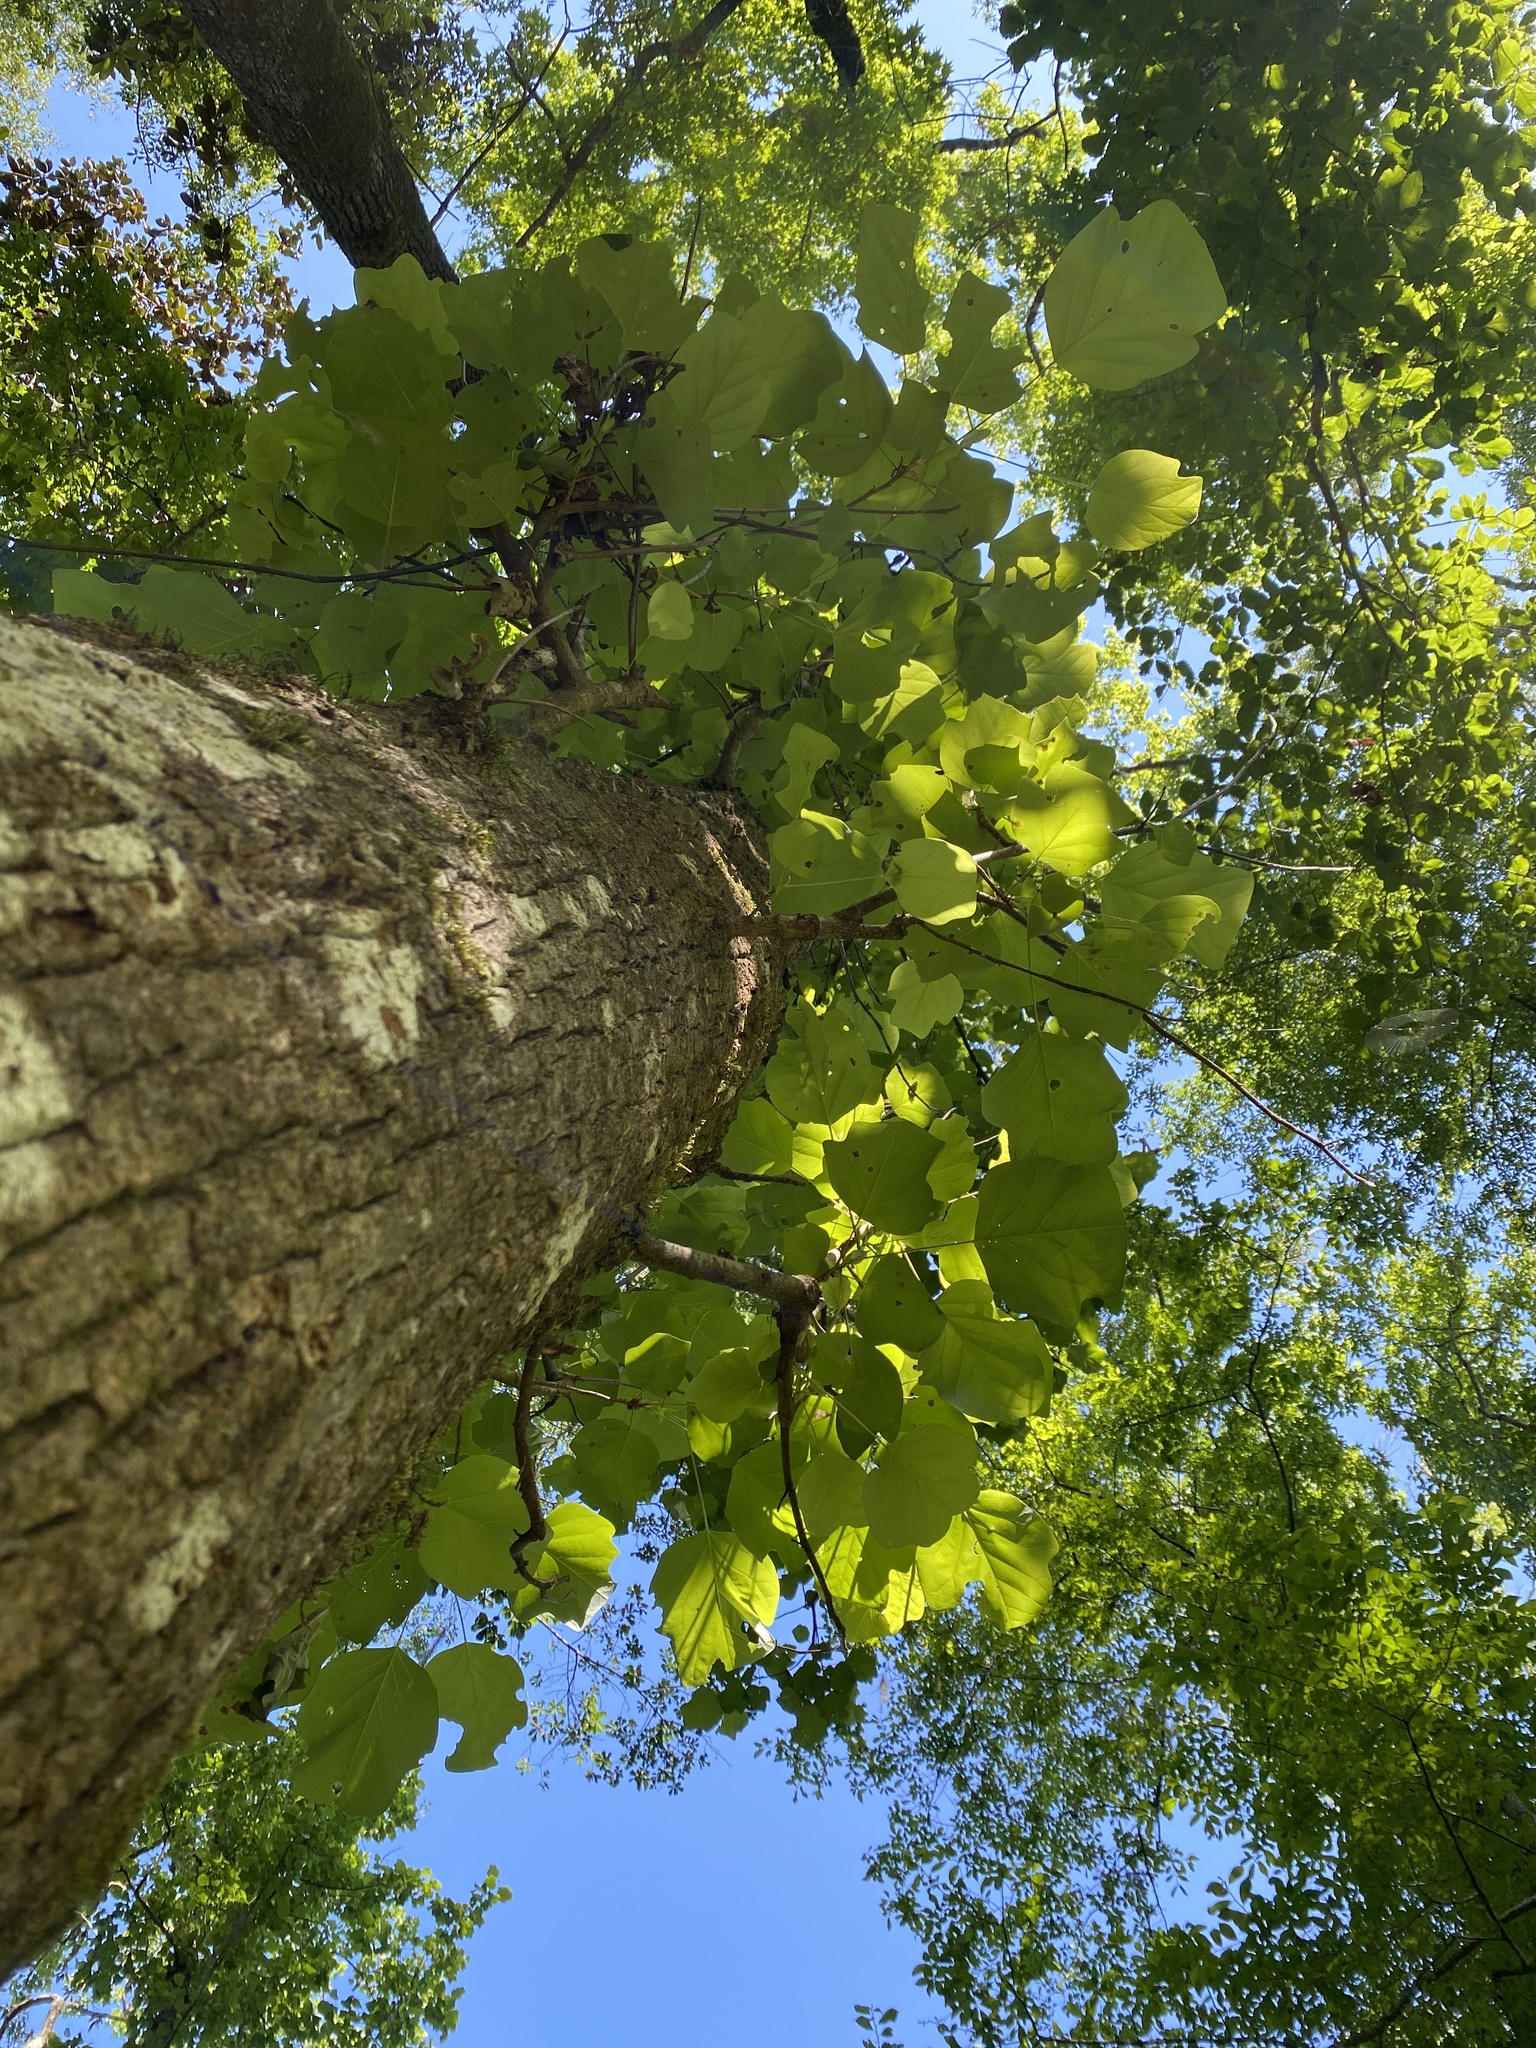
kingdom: Plantae
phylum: Tracheophyta
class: Magnoliopsida
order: Magnoliales
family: Magnoliaceae
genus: Liriodendron
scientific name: Liriodendron tulipifera
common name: Tulip tree
